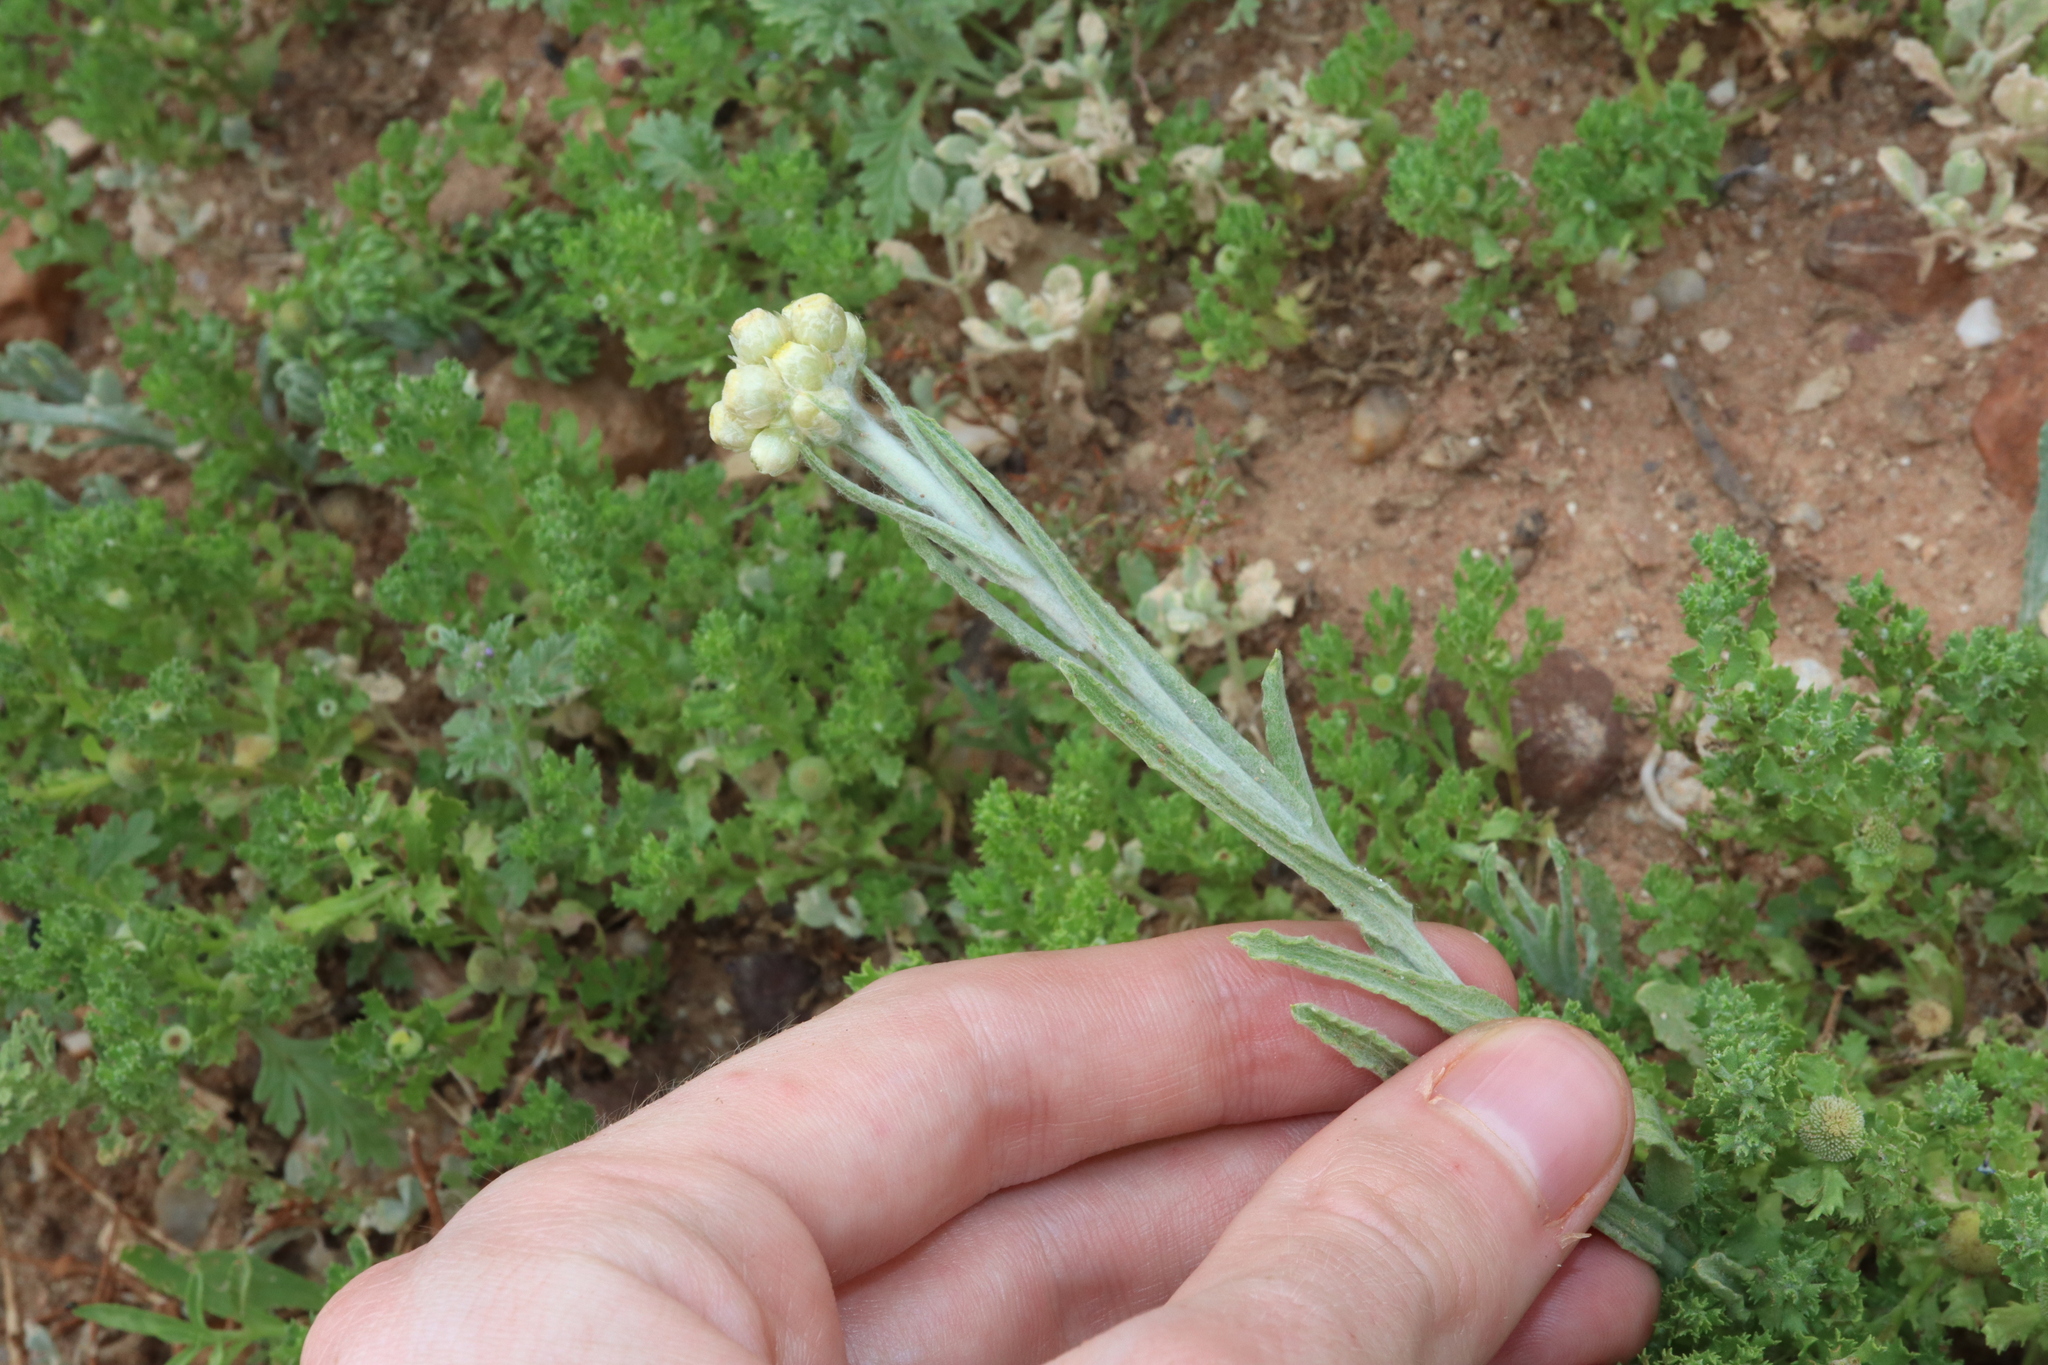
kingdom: Plantae
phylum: Tracheophyta
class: Magnoliopsida
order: Asterales
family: Asteraceae
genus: Helichrysum
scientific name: Helichrysum luteoalbum
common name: Daisy
